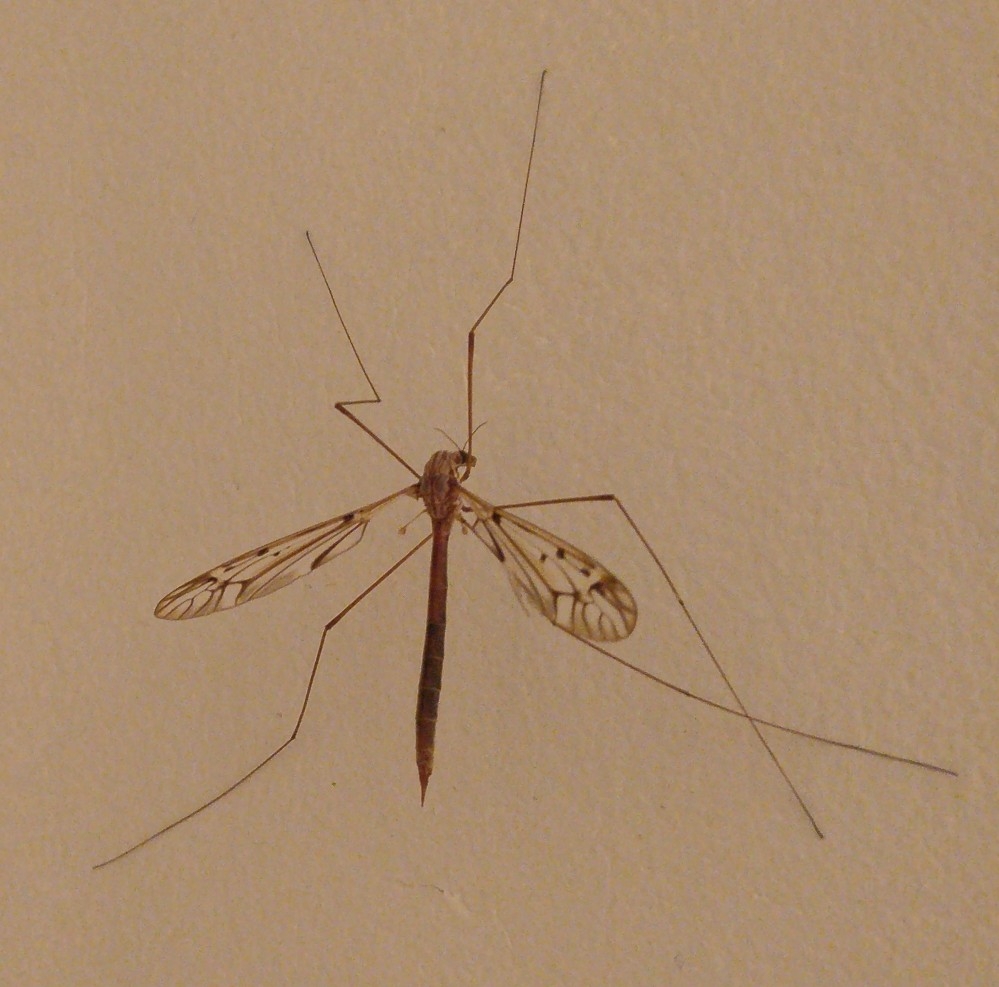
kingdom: Animalia
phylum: Arthropoda
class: Insecta
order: Diptera
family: Tipulidae
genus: Zelandotipula
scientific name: Zelandotipula novarae
